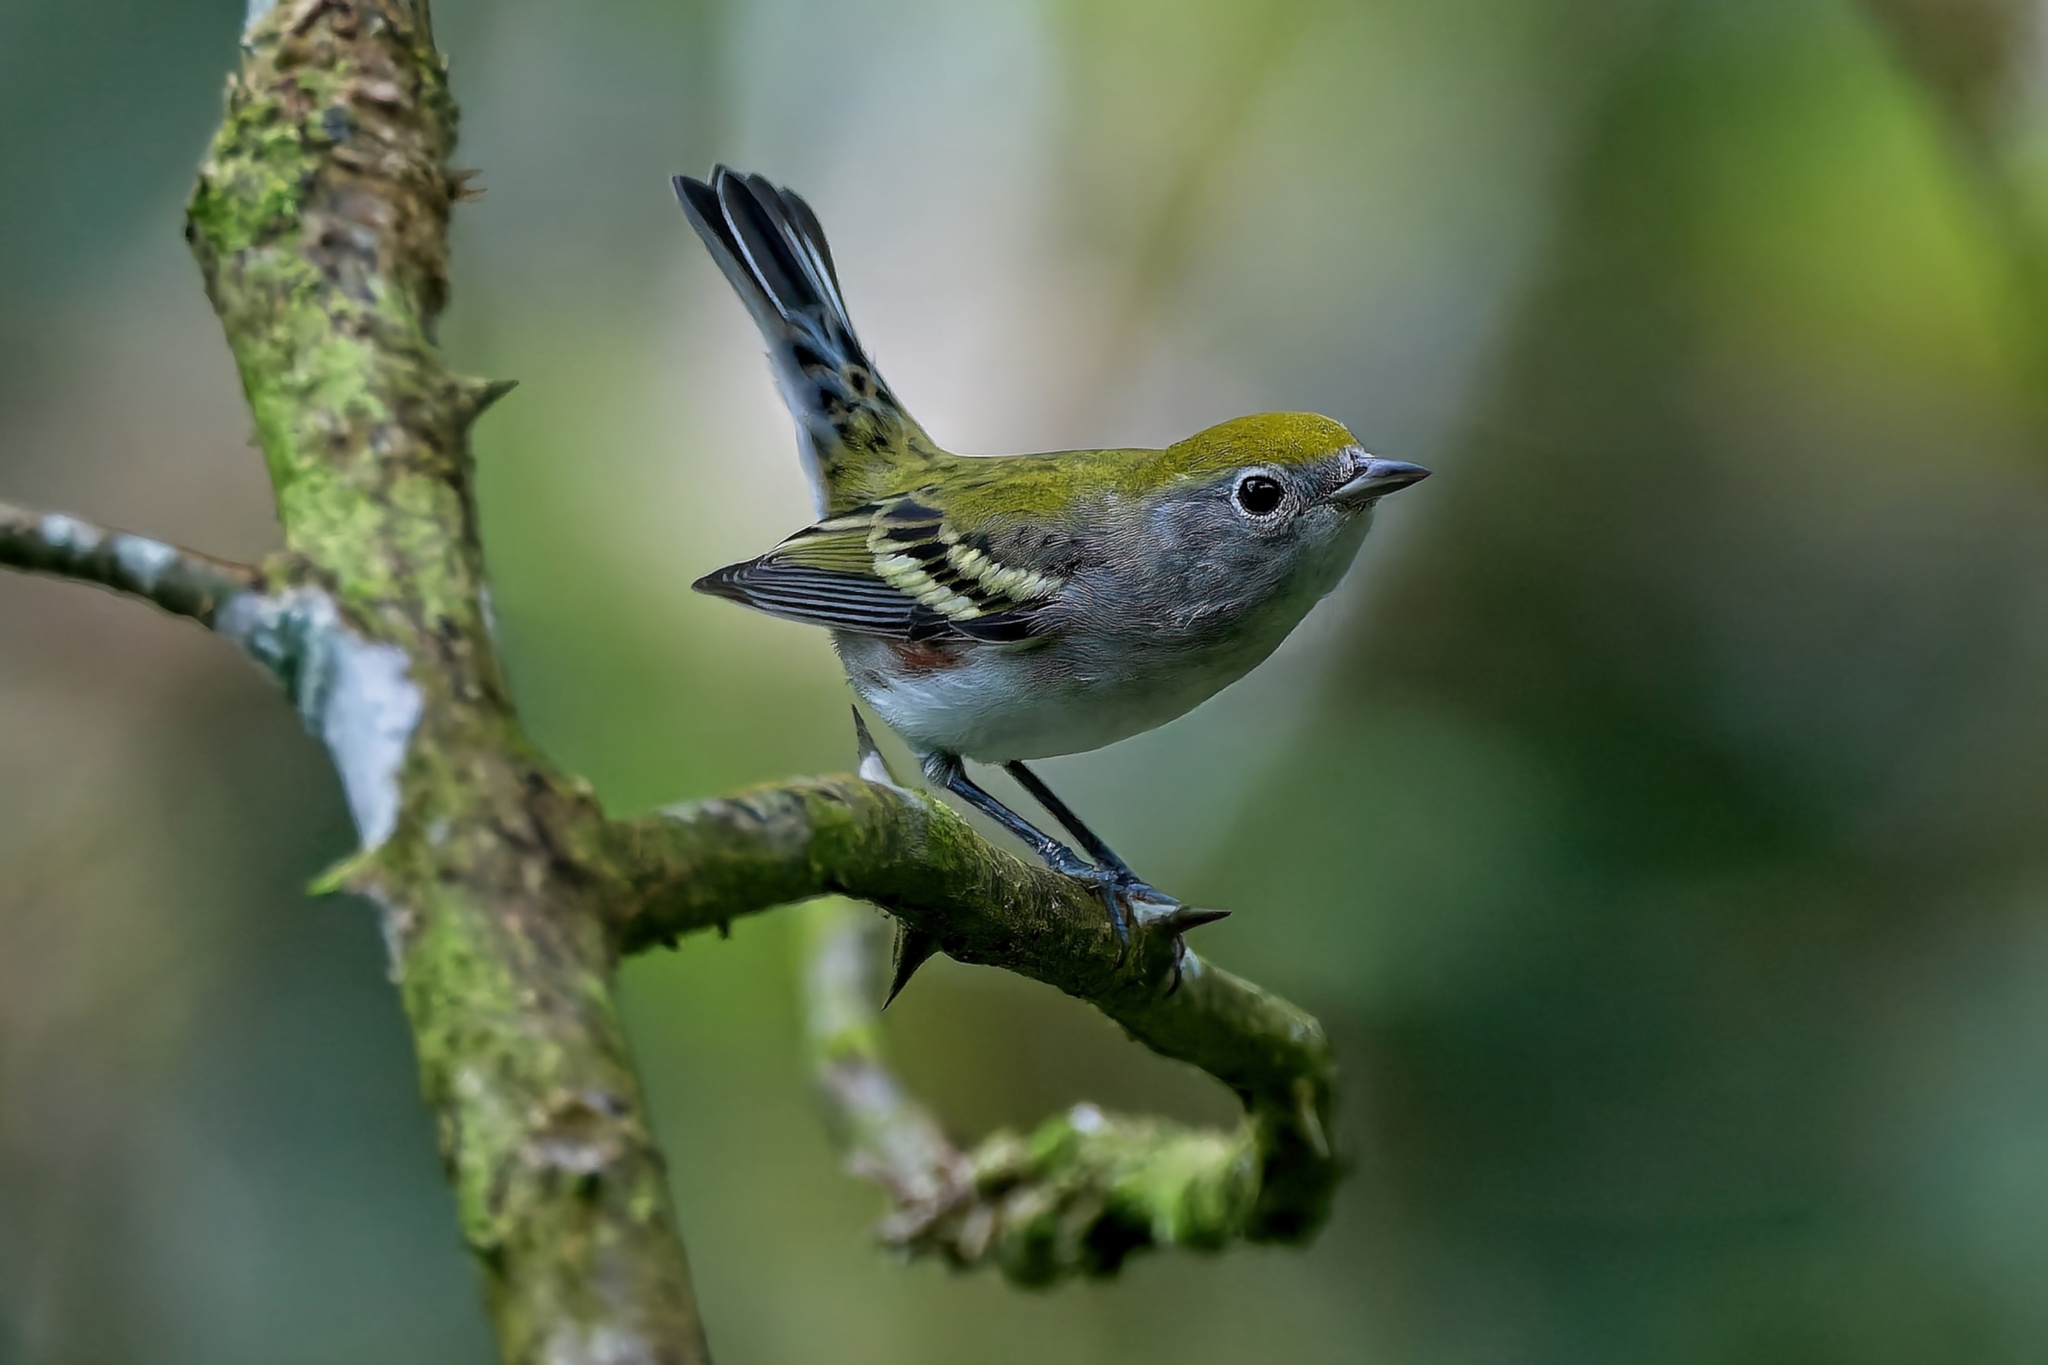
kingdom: Animalia
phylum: Chordata
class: Aves
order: Passeriformes
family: Parulidae
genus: Setophaga
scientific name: Setophaga pensylvanica
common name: Chestnut-sided warbler
